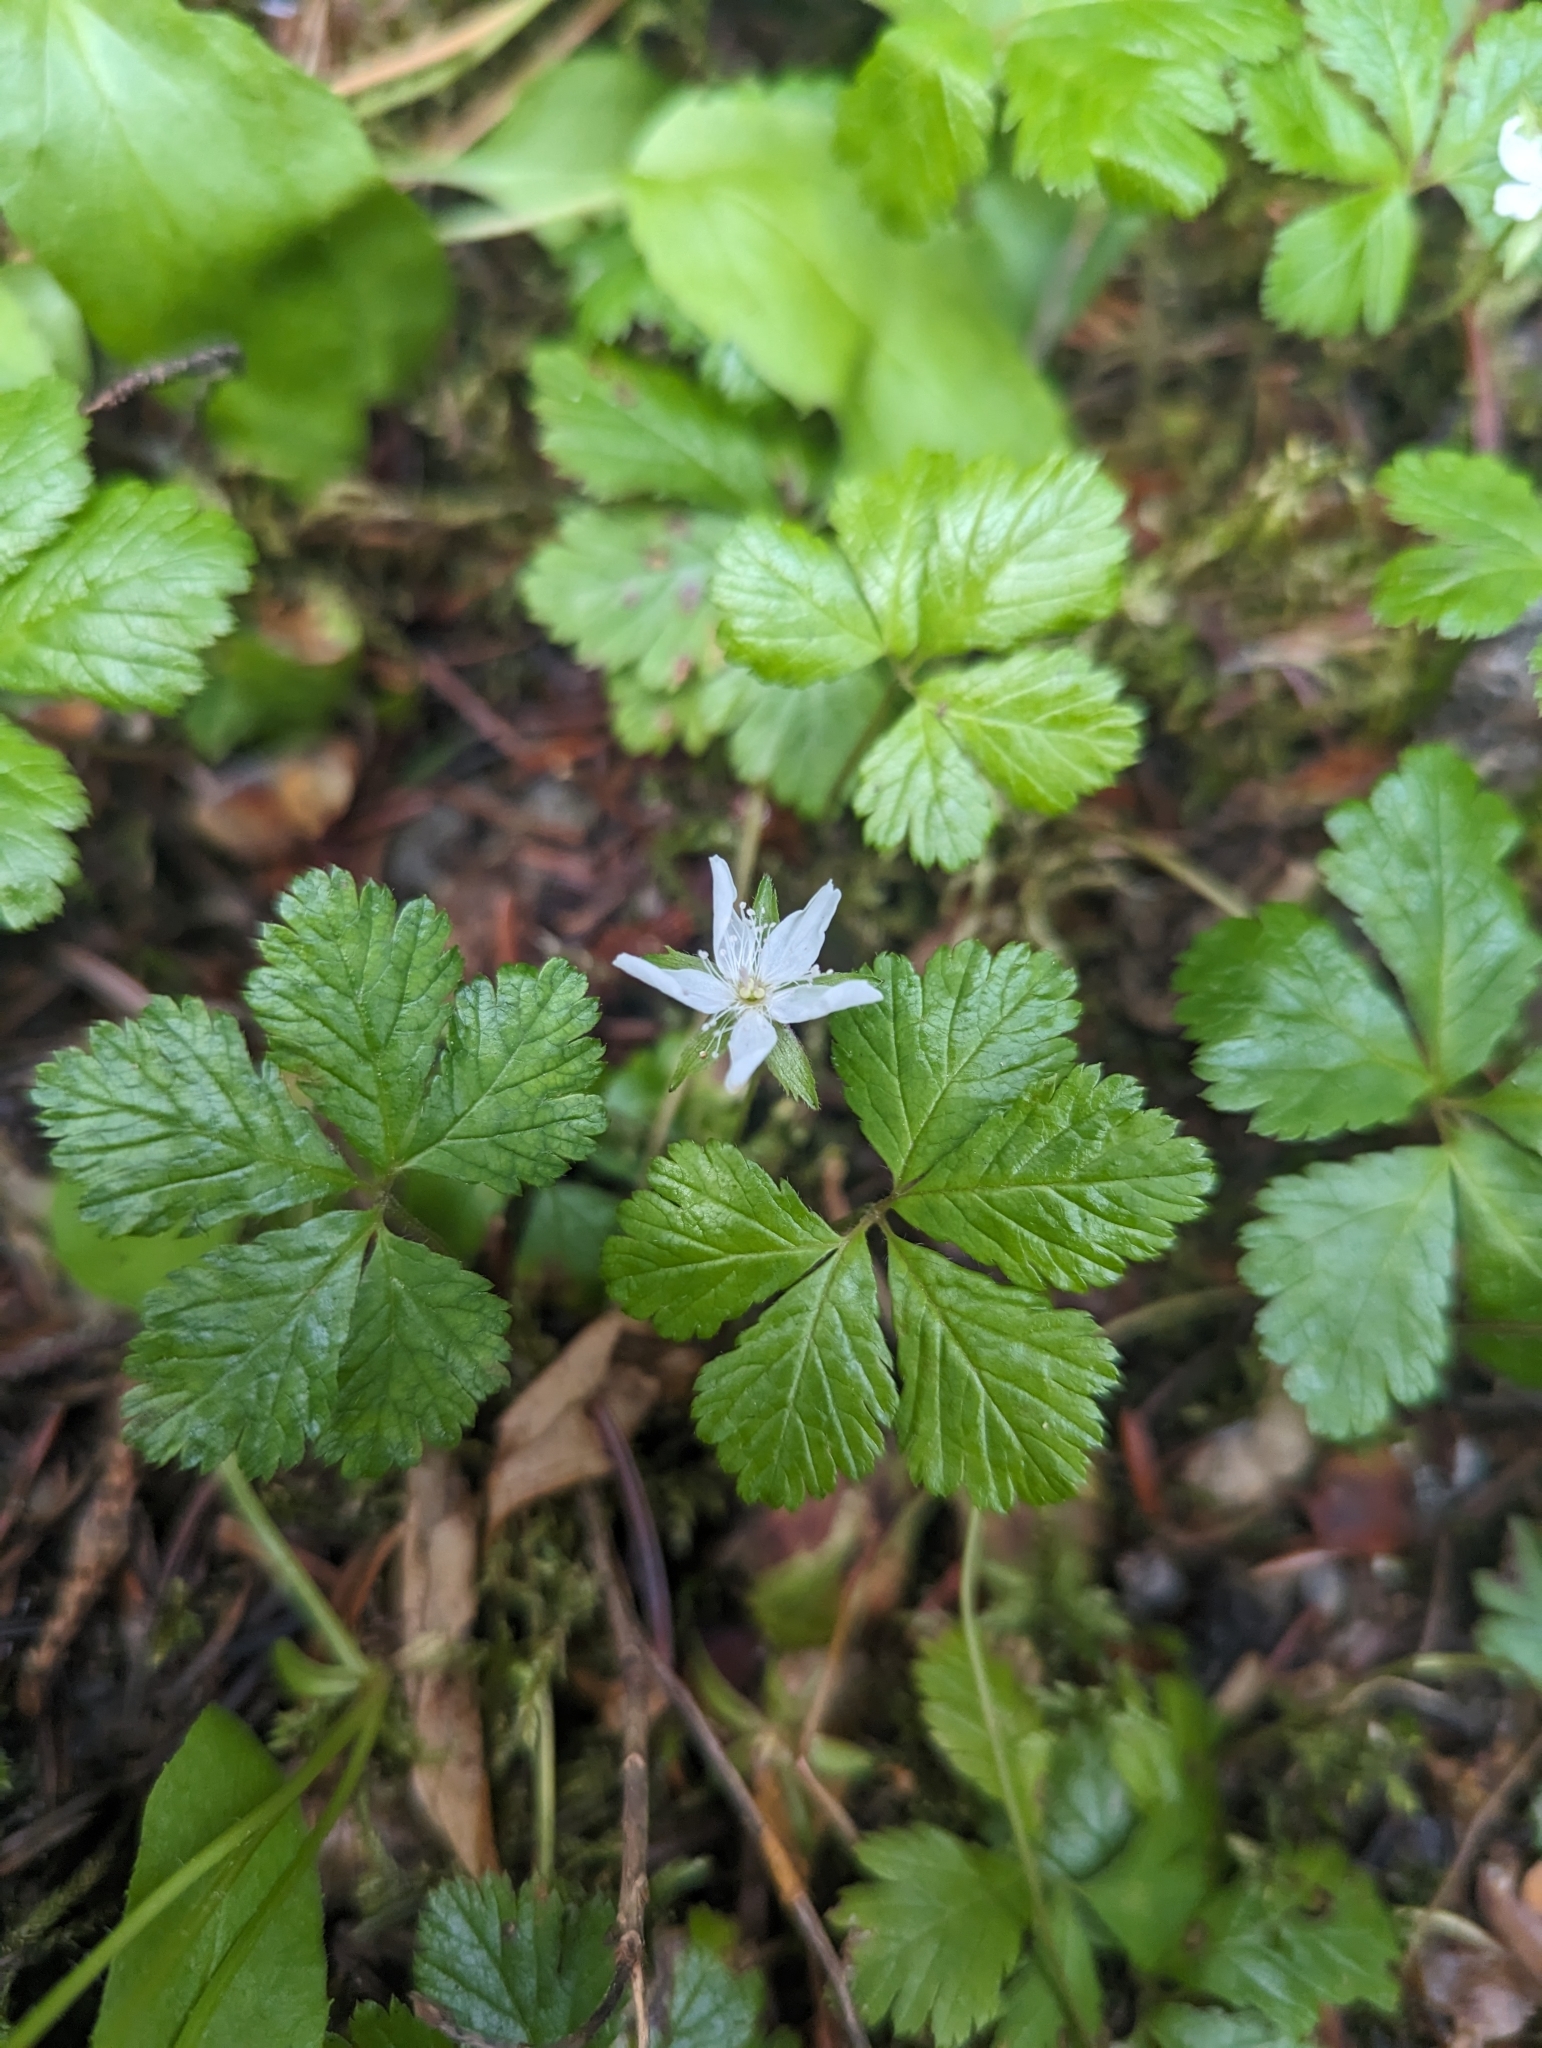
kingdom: Plantae
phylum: Tracheophyta
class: Magnoliopsida
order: Rosales
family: Rosaceae
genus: Rubus
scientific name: Rubus pedatus
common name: Creeping raspberry
